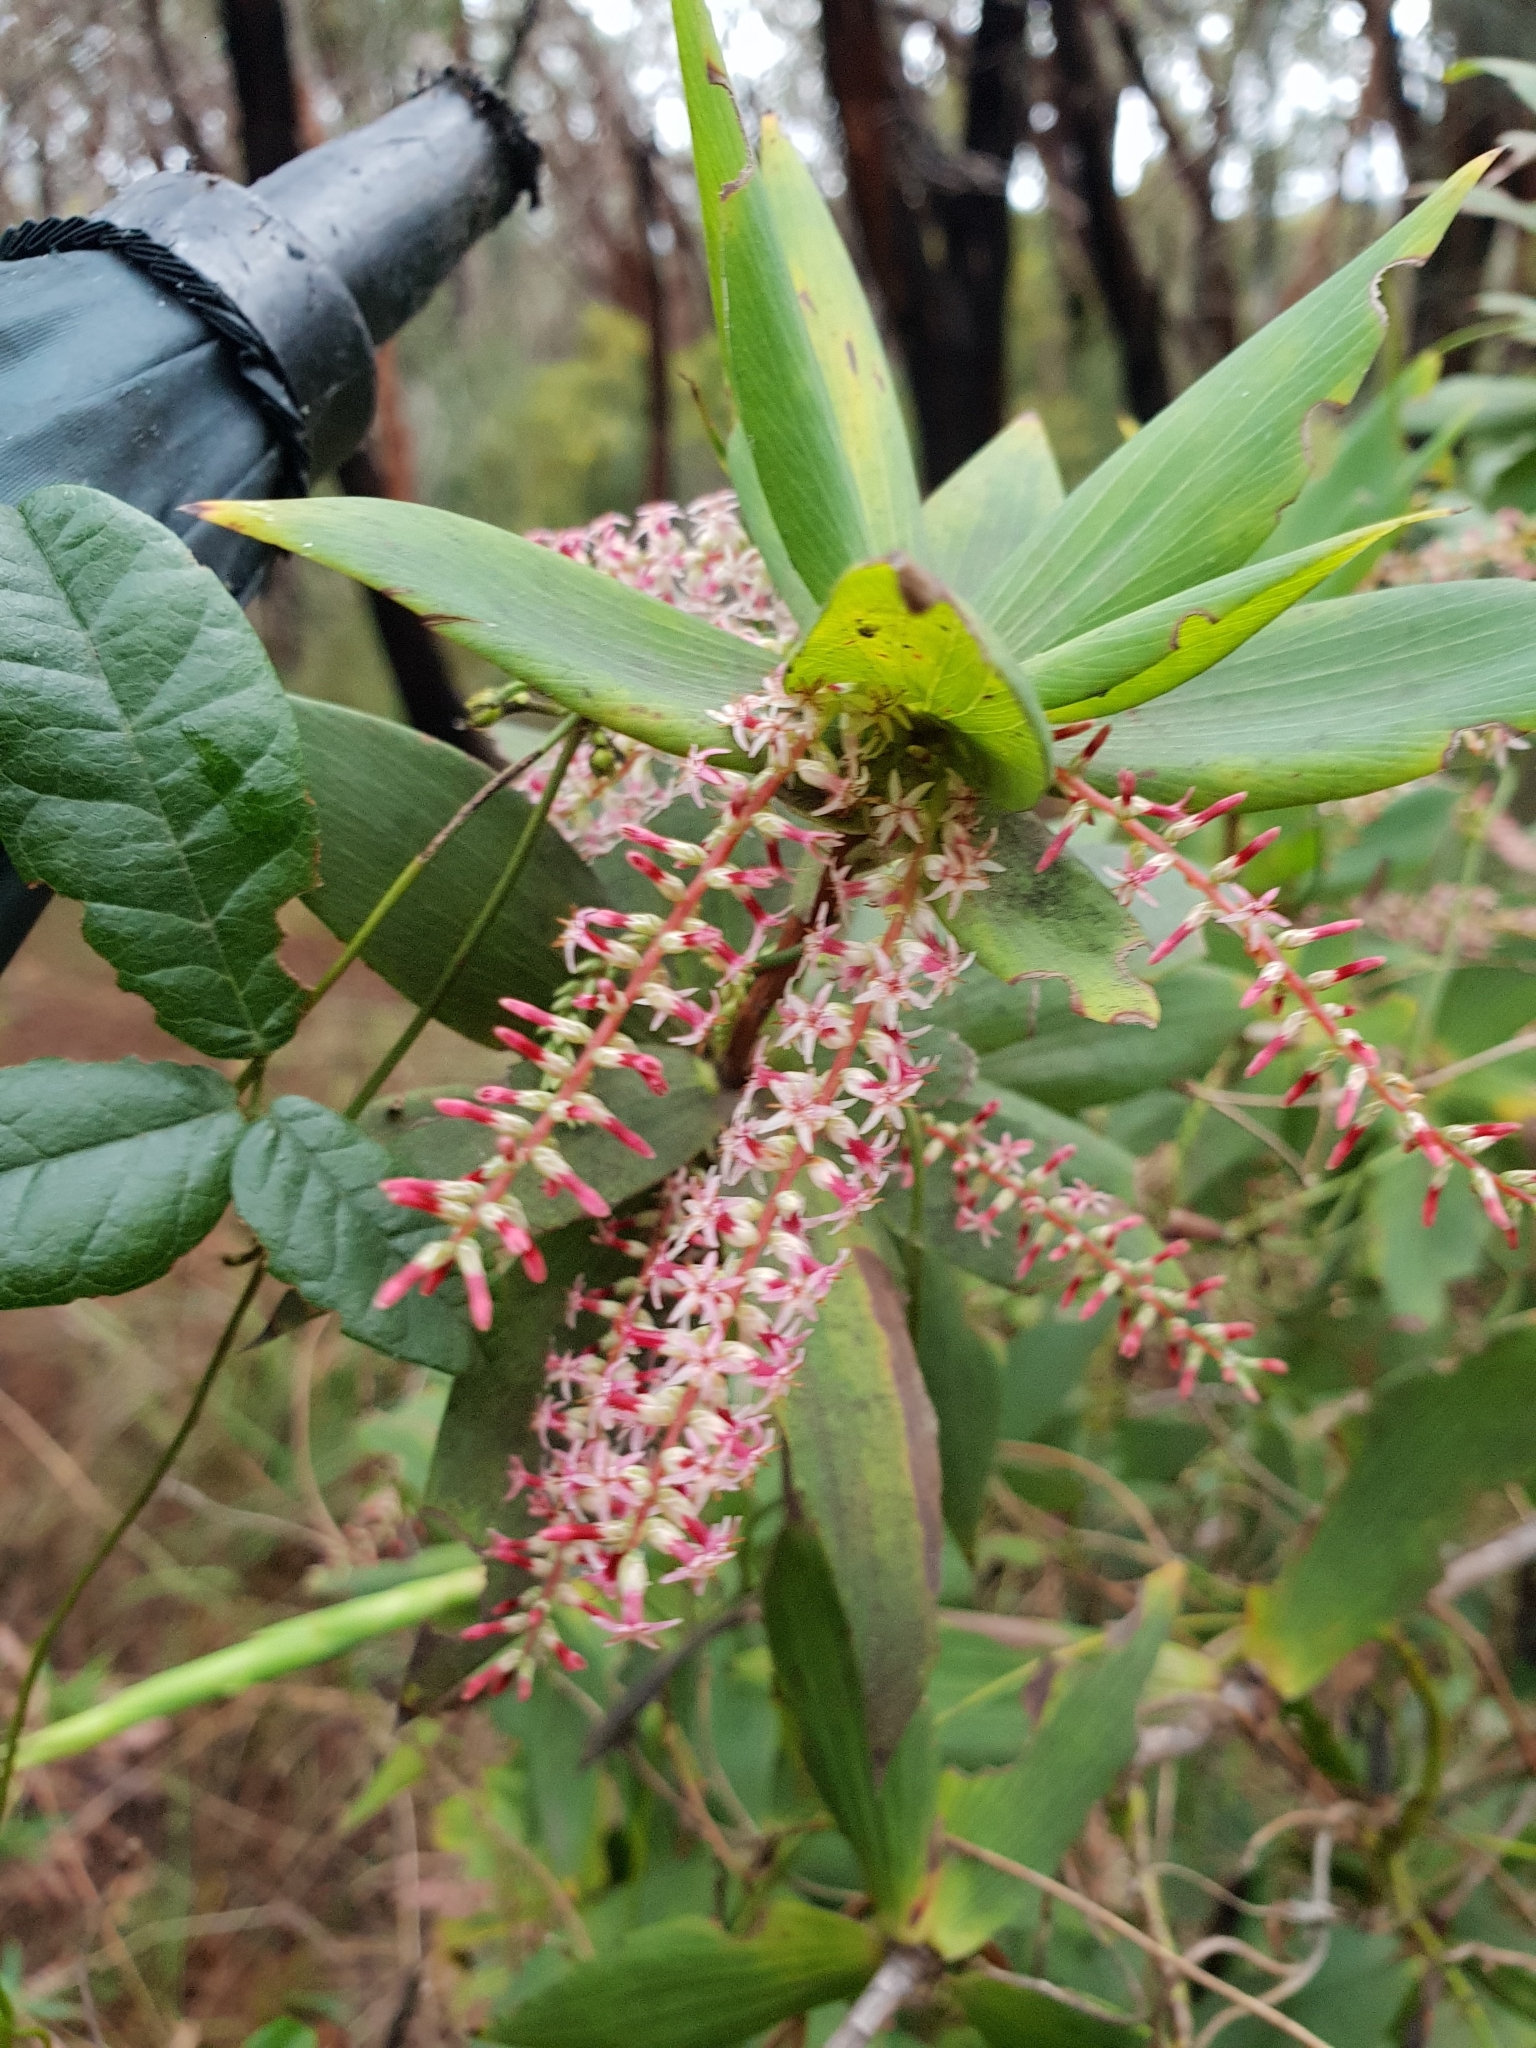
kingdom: Plantae
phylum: Tracheophyta
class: Magnoliopsida
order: Ericales
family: Ericaceae
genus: Leucopogon
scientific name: Leucopogon verticillatus
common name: Tasselshrub
